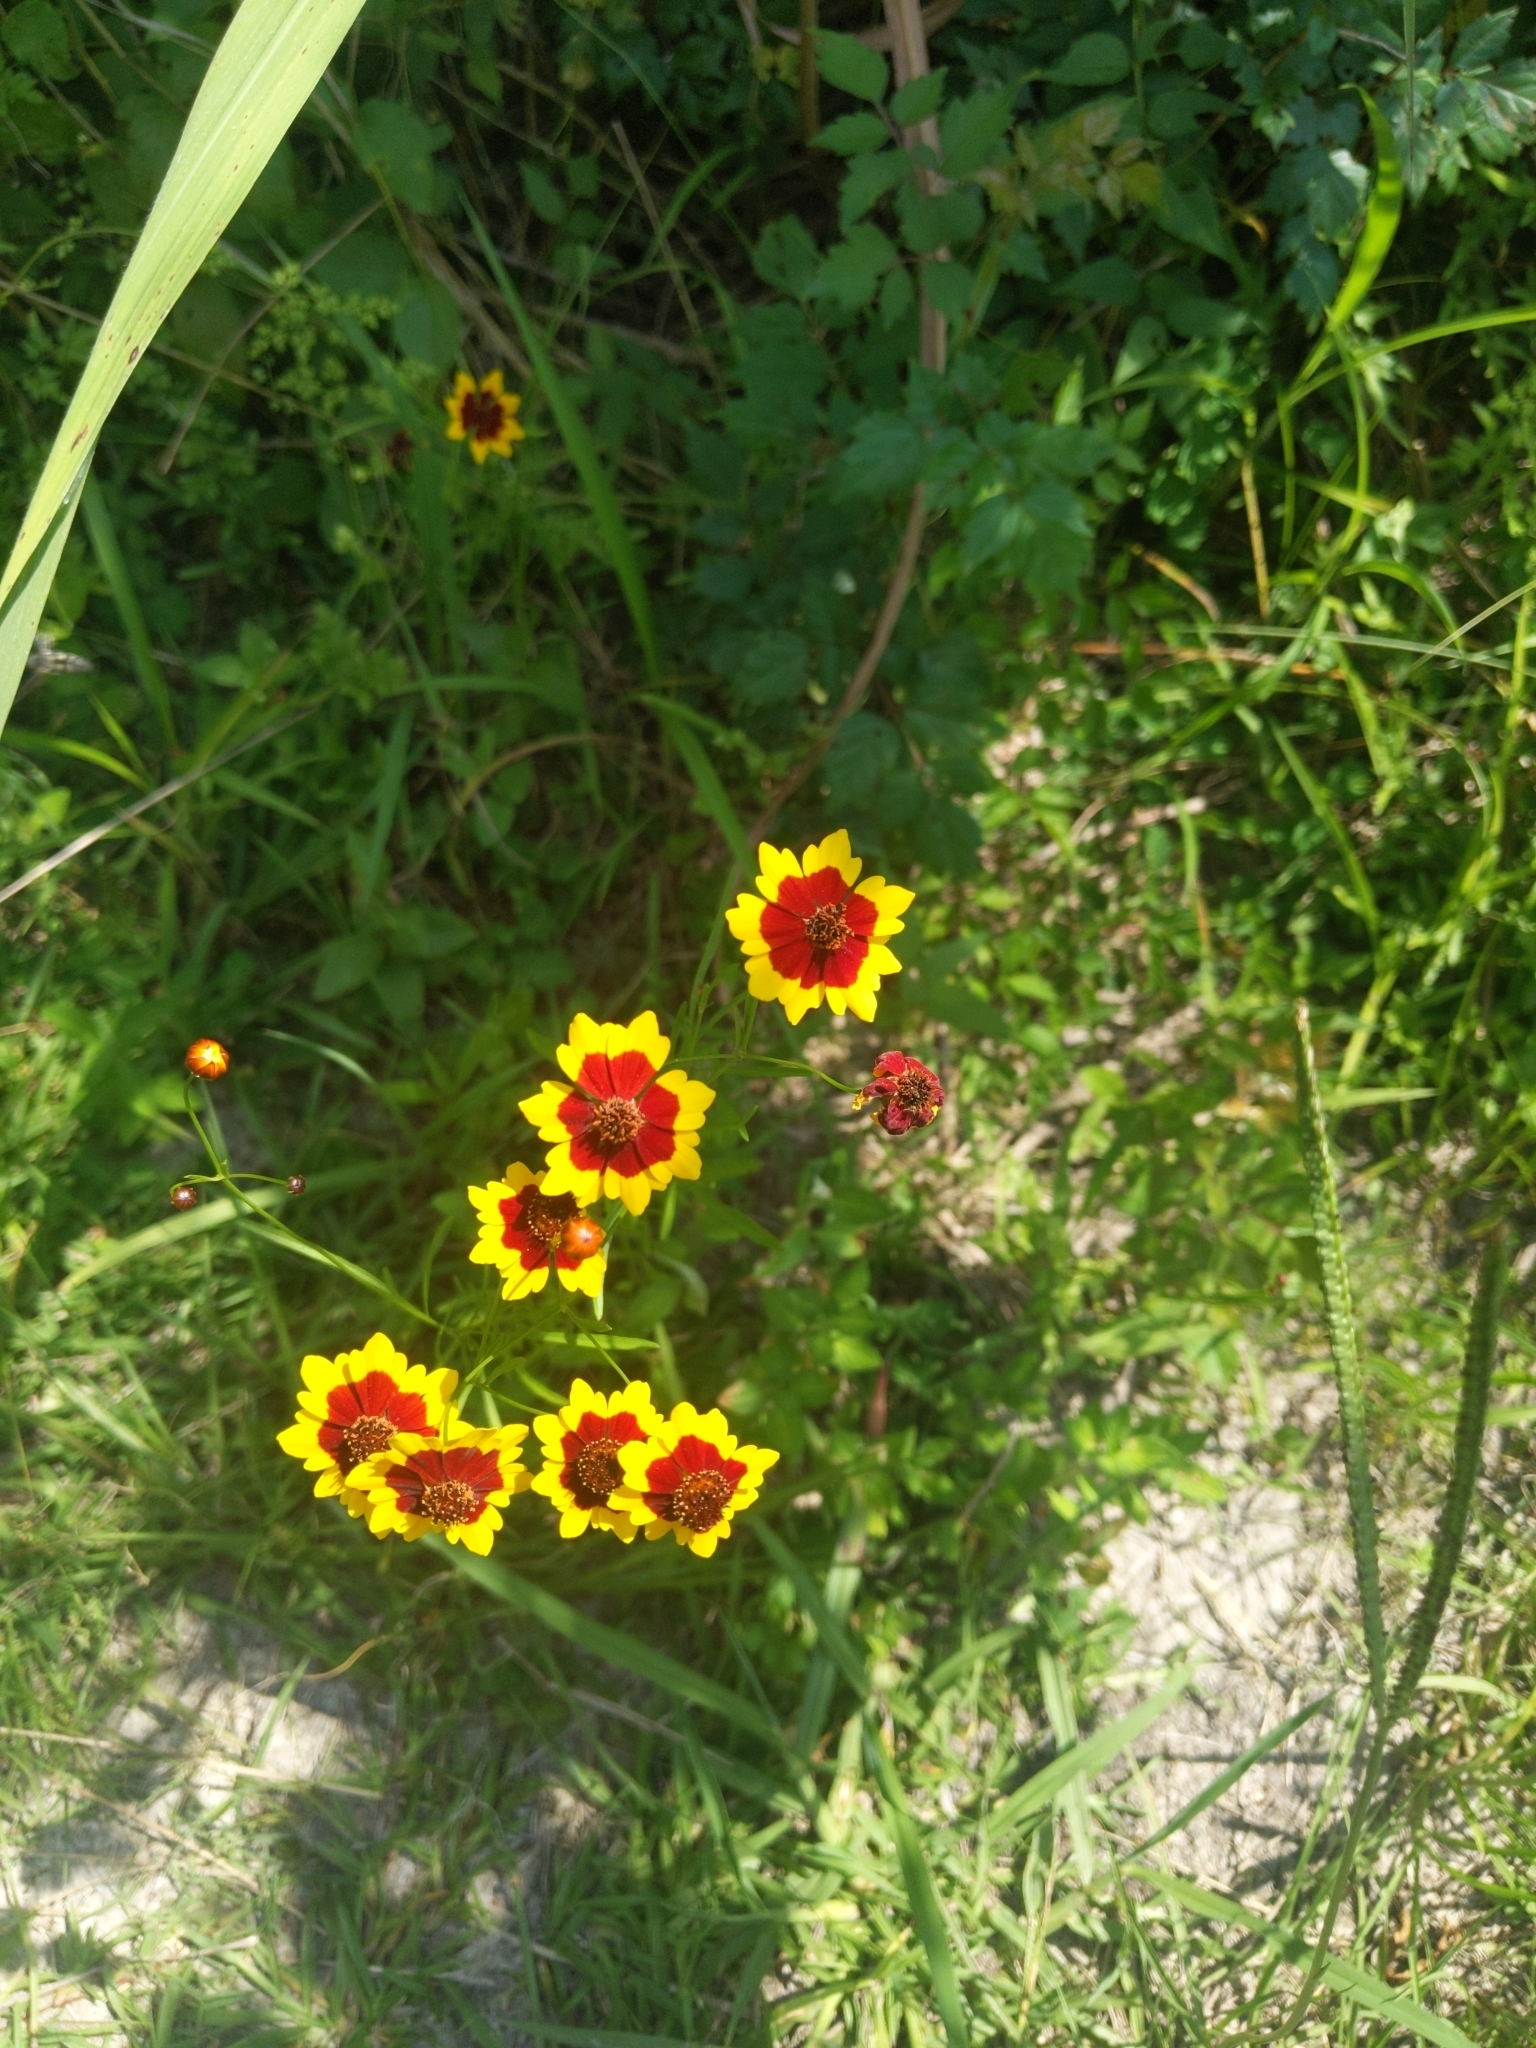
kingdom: Plantae
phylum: Tracheophyta
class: Magnoliopsida
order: Asterales
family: Asteraceae
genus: Coreopsis
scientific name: Coreopsis tinctoria
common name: Garden tickseed
